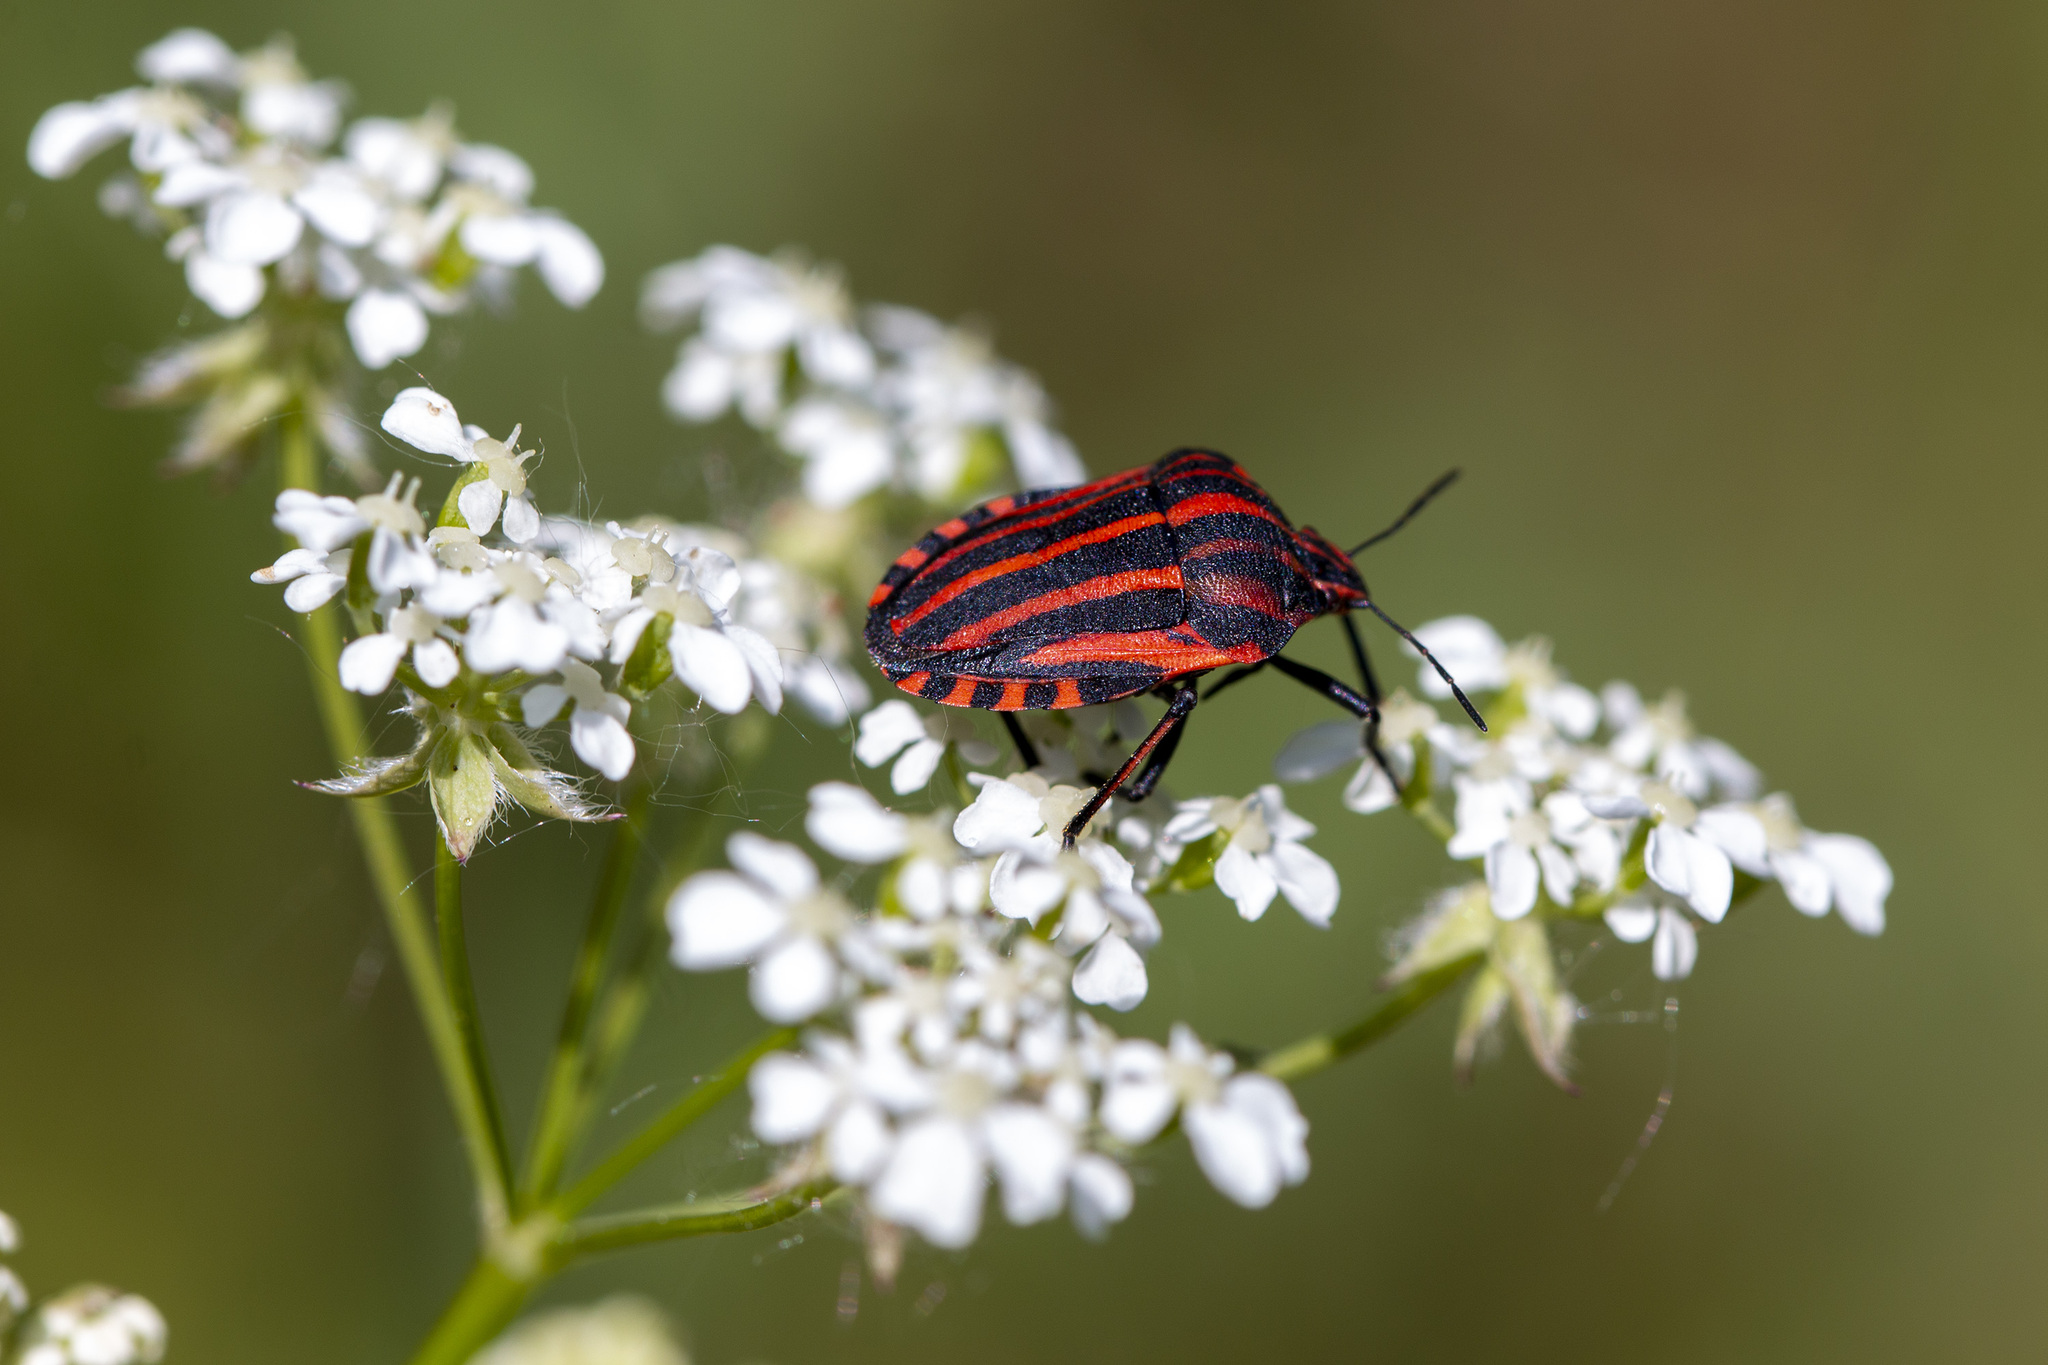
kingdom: Animalia
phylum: Arthropoda
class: Insecta
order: Hemiptera
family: Pentatomidae
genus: Graphosoma
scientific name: Graphosoma italicum
